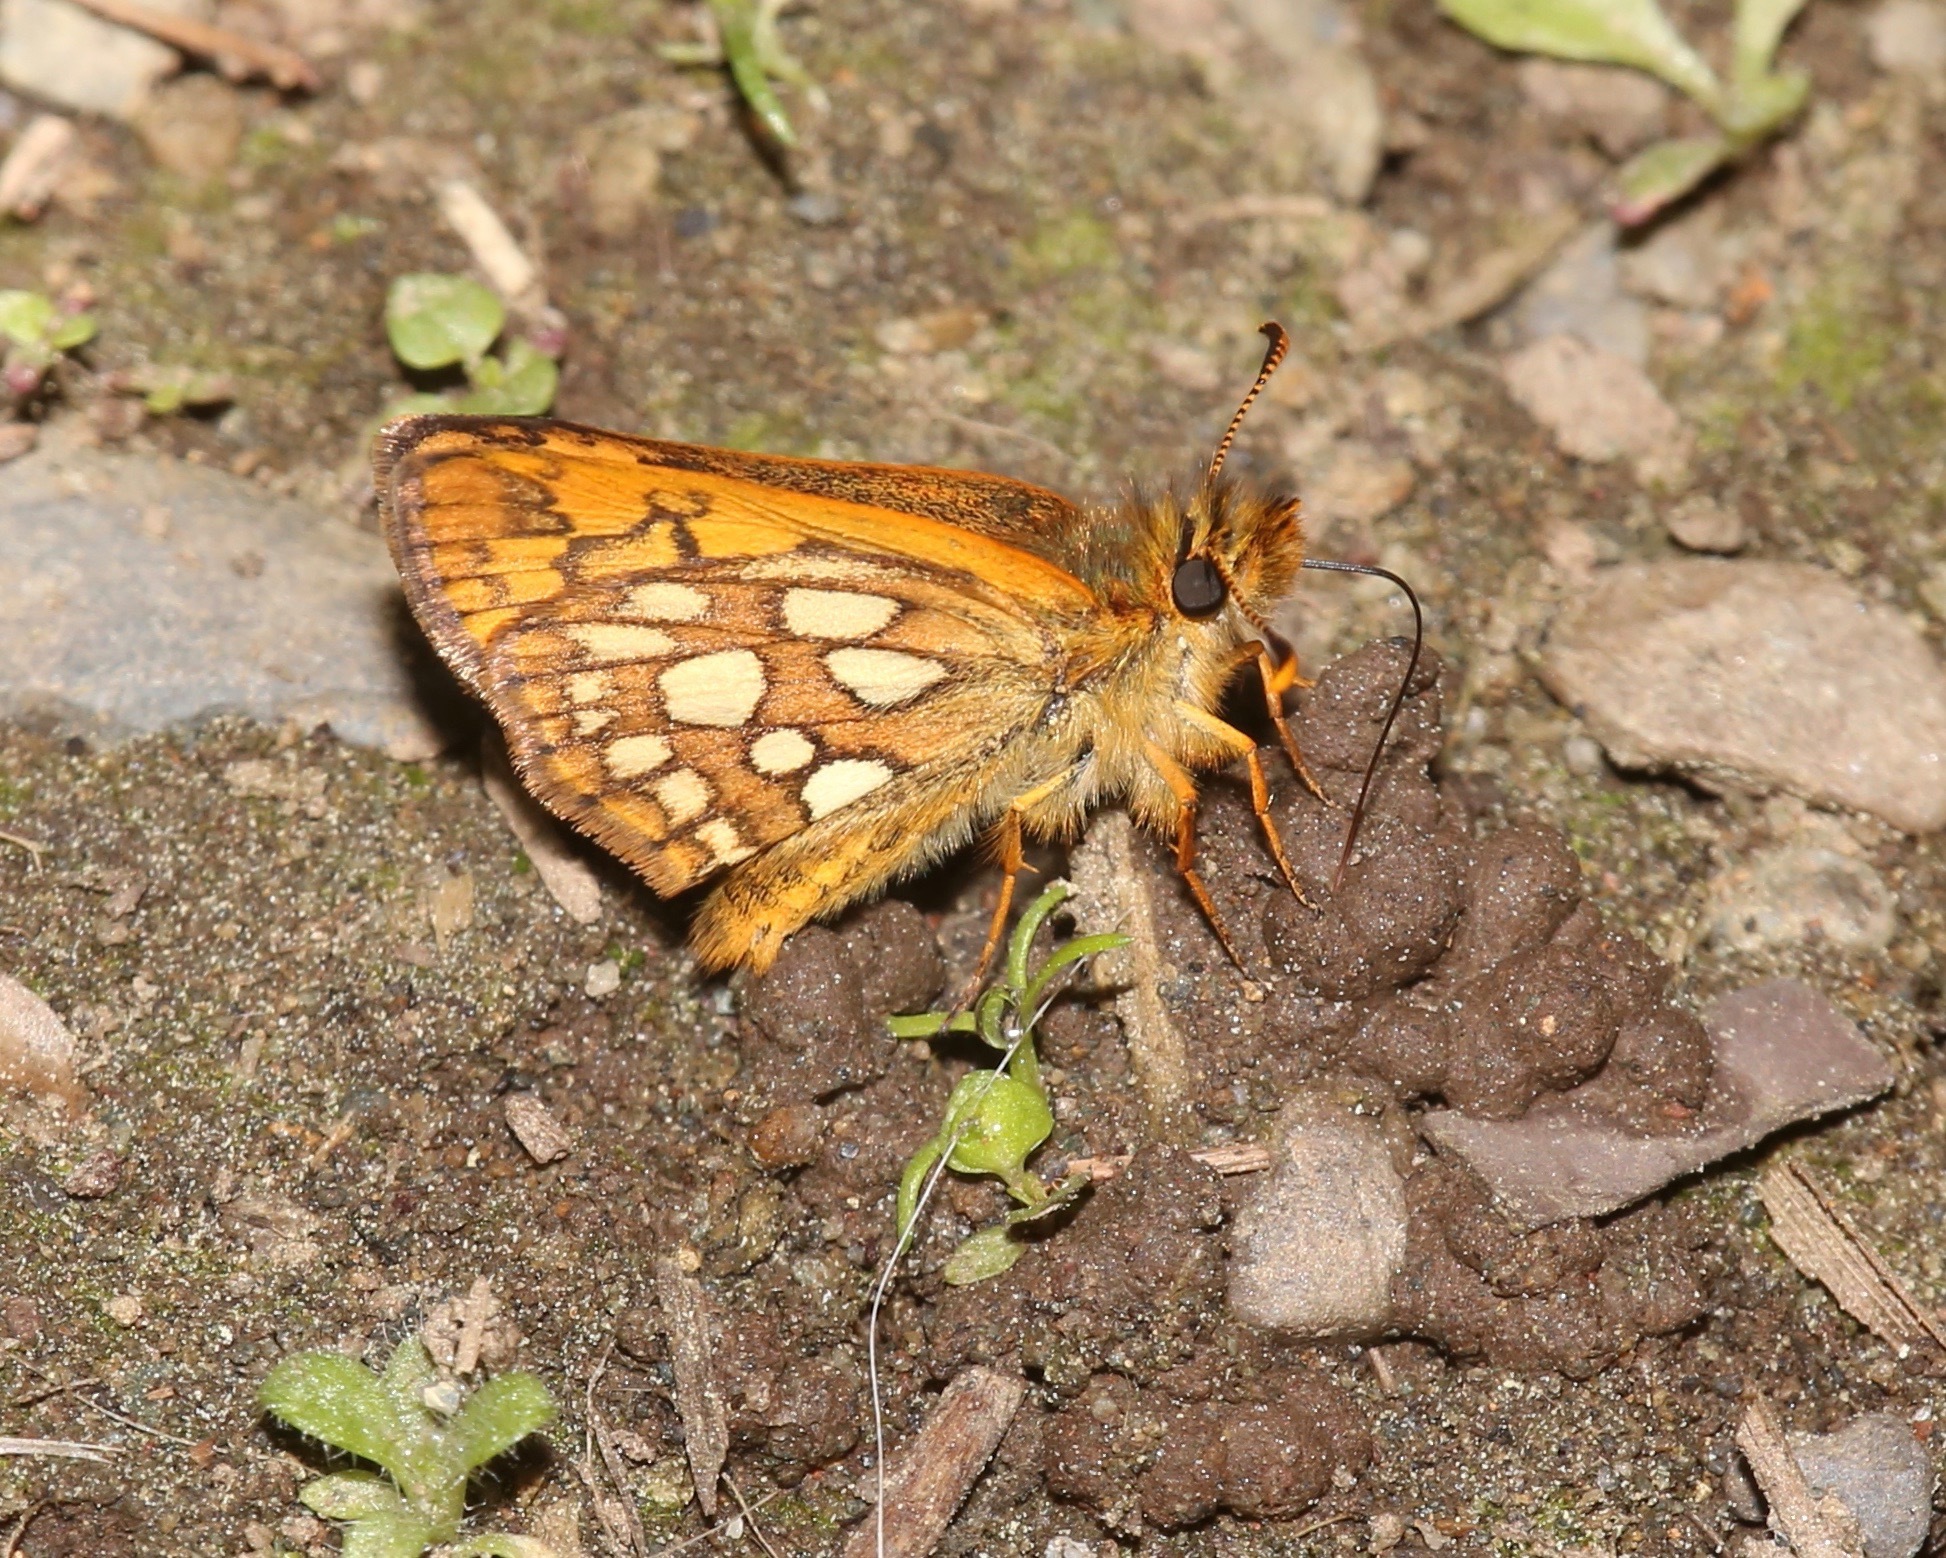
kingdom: Animalia
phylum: Arthropoda
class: Insecta
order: Lepidoptera
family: Hesperiidae
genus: Carterocephalus
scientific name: Carterocephalus skada
